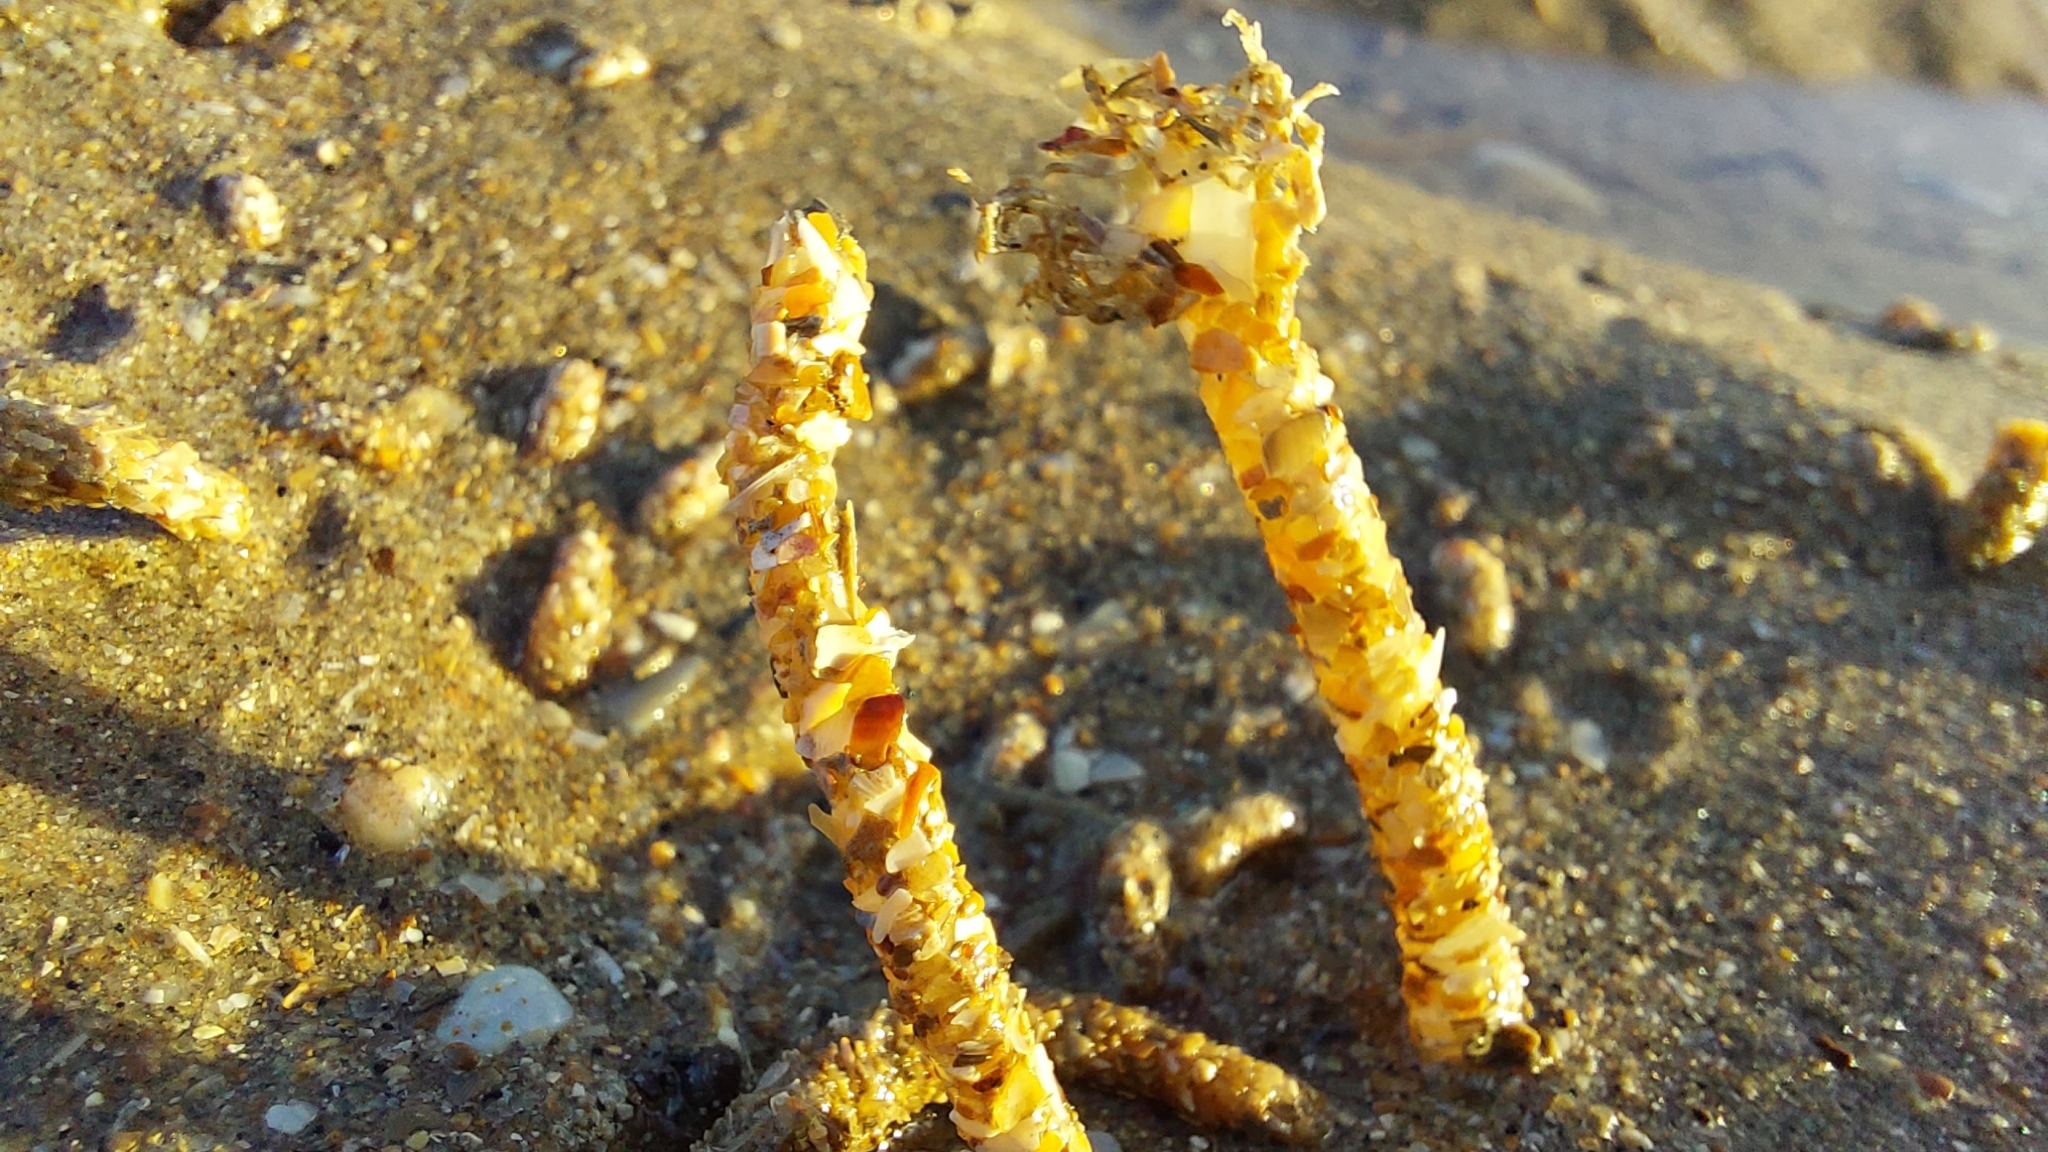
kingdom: Animalia
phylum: Annelida
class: Polychaeta
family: Terebellidae
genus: Lanice
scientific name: Lanice conchilega
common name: Sand mason
